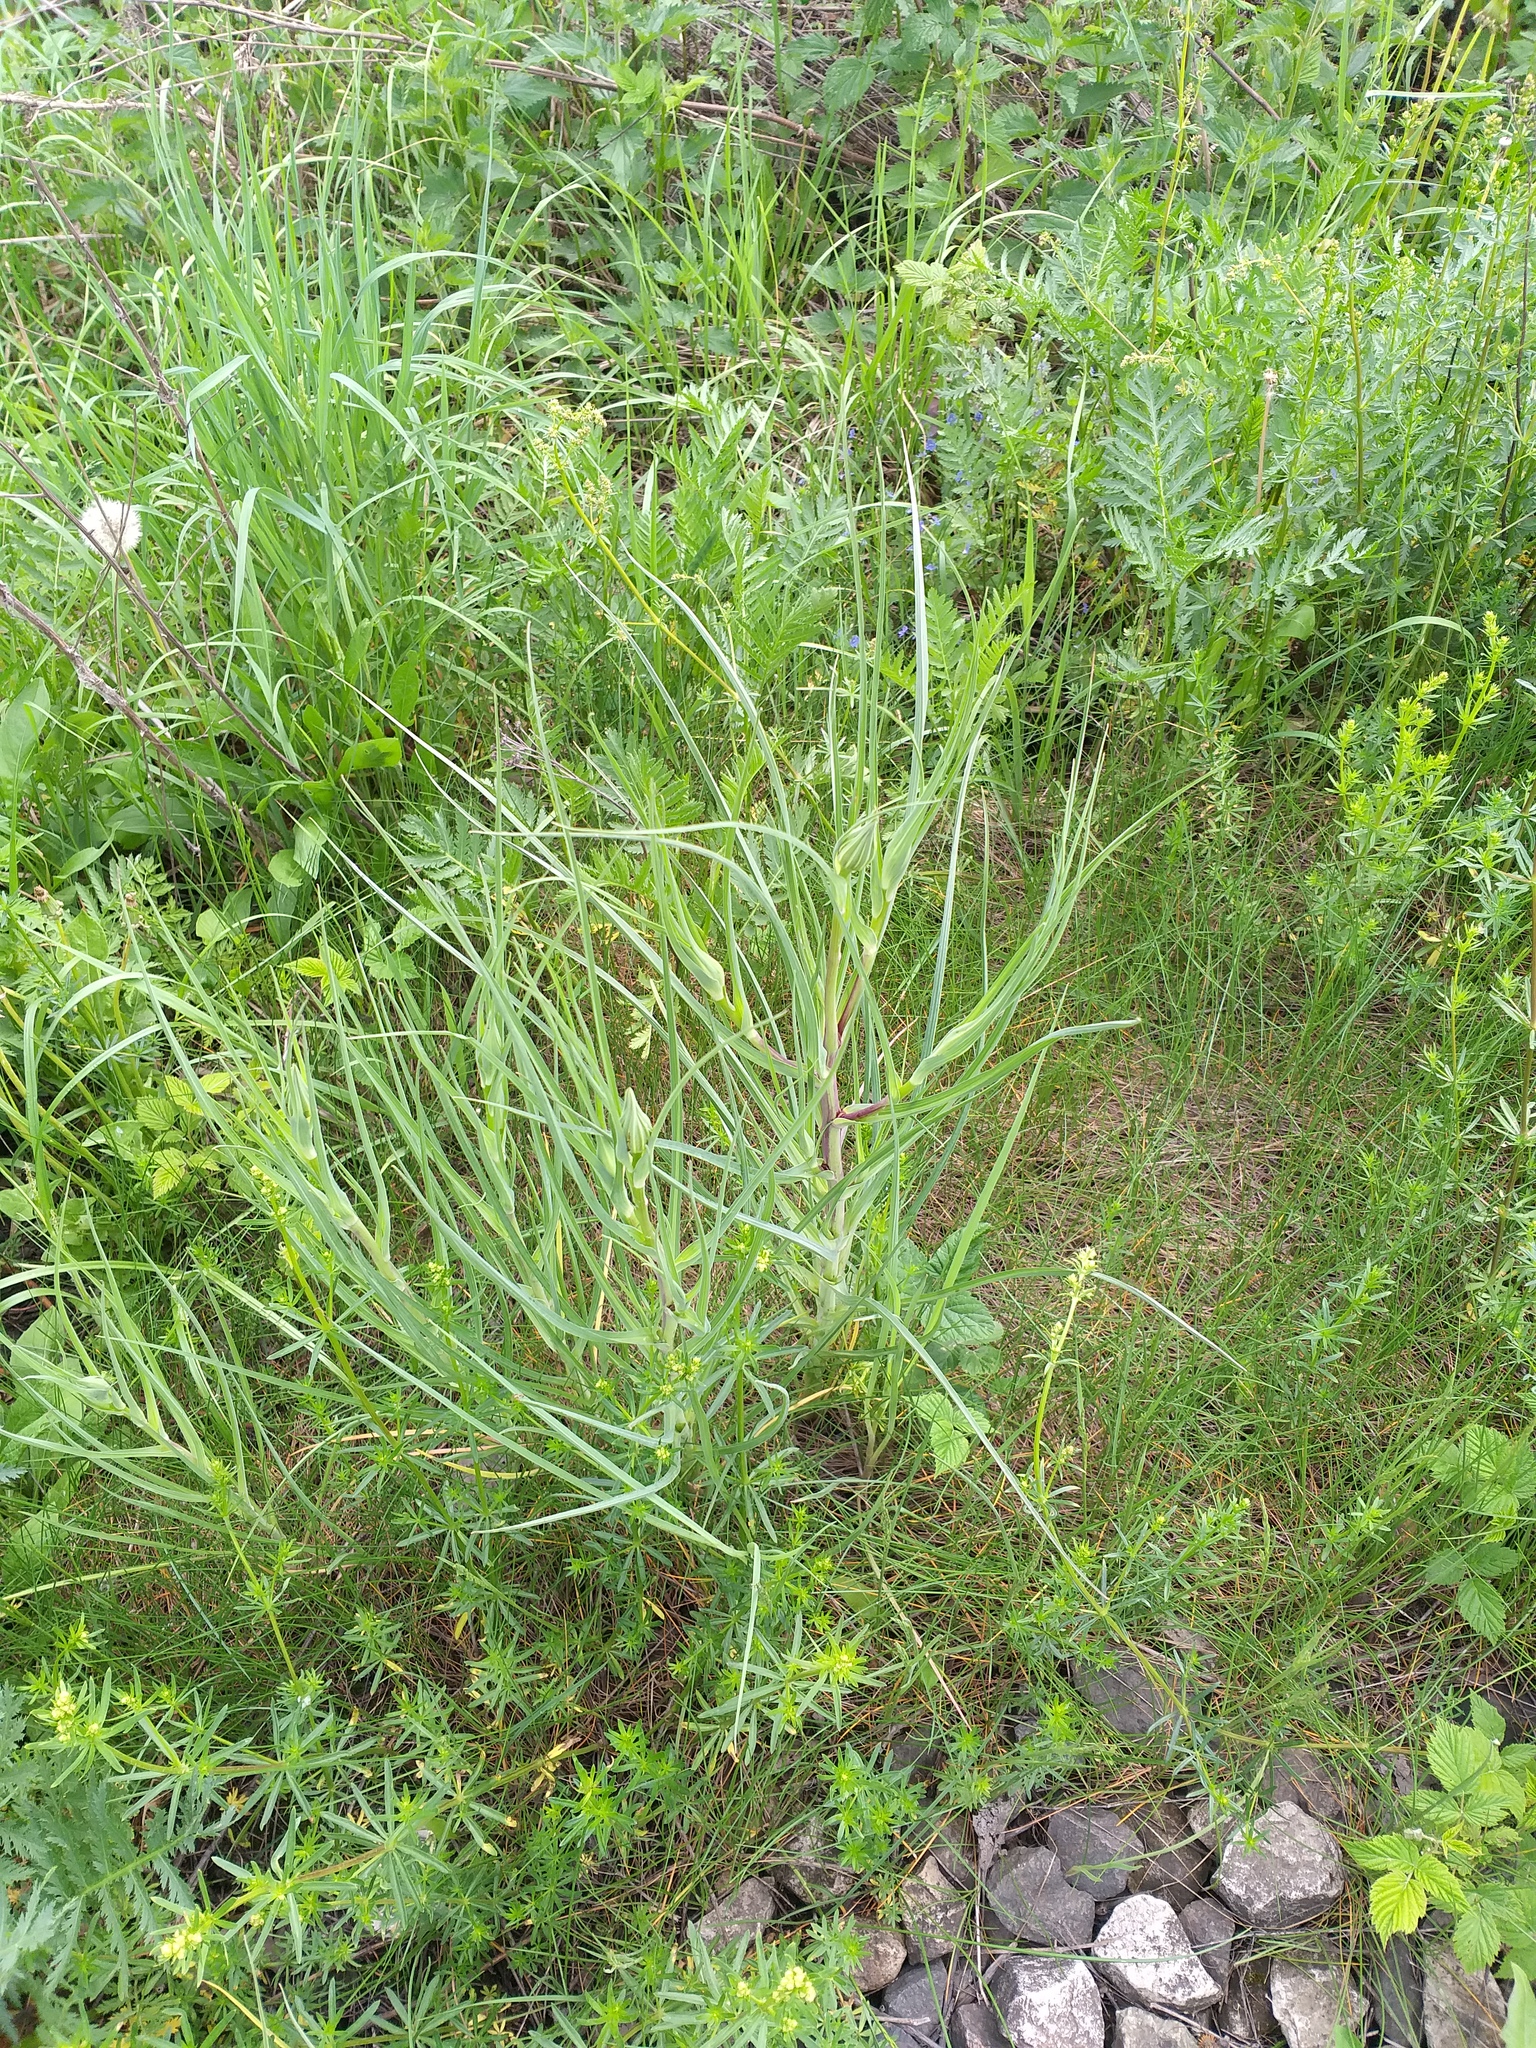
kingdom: Plantae
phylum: Tracheophyta
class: Magnoliopsida
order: Asterales
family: Asteraceae
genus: Tragopogon
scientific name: Tragopogon pratensis
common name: Goat's-beard
